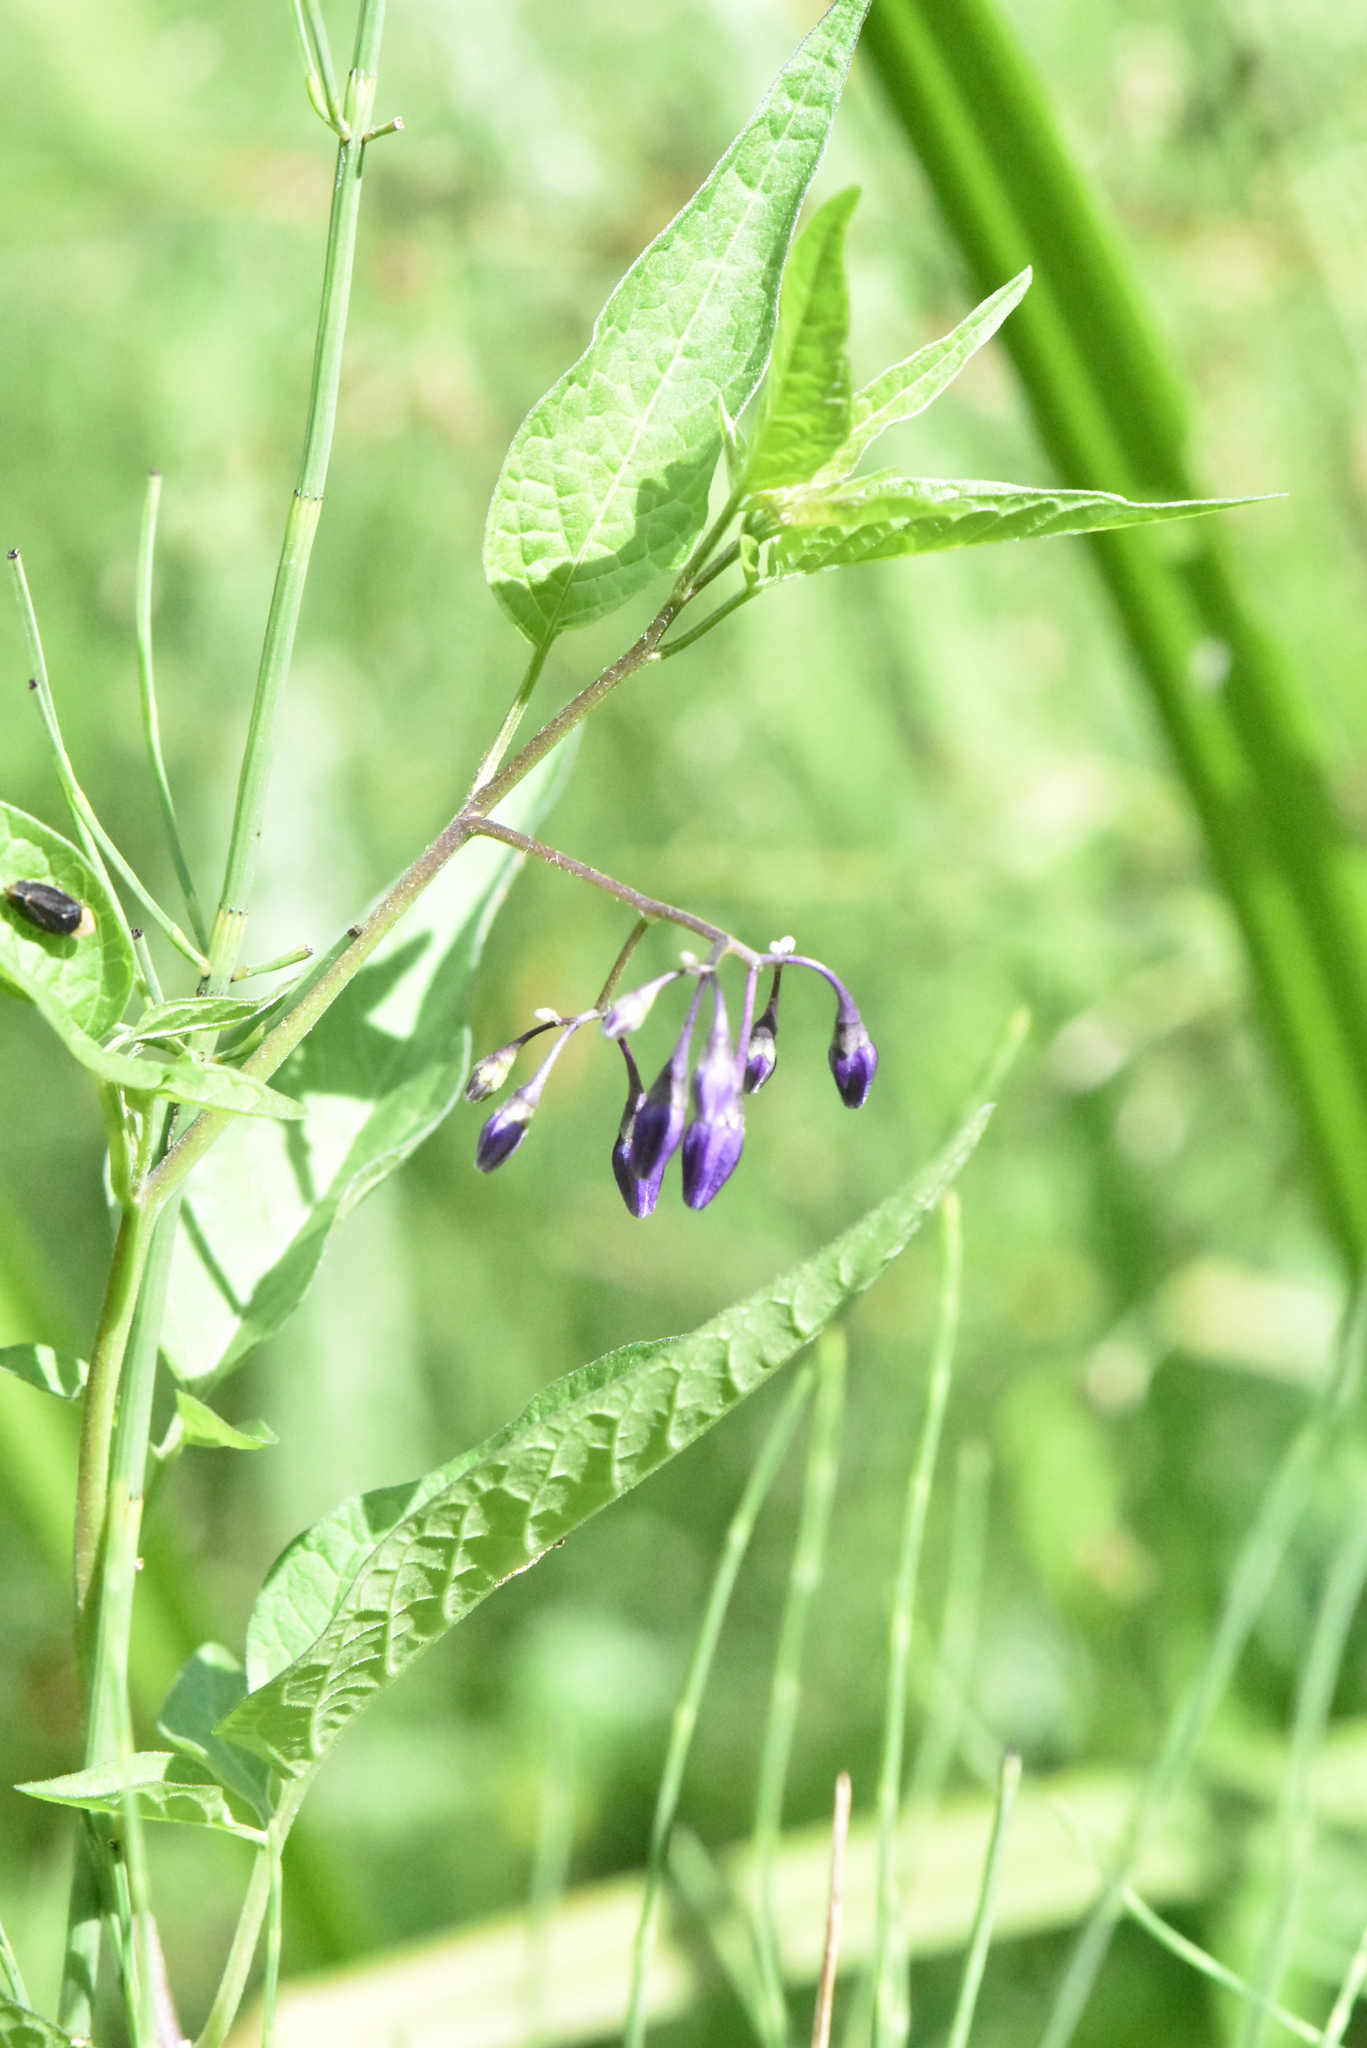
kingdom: Plantae
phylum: Tracheophyta
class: Magnoliopsida
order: Solanales
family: Solanaceae
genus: Solanum
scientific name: Solanum dulcamara
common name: Climbing nightshade
